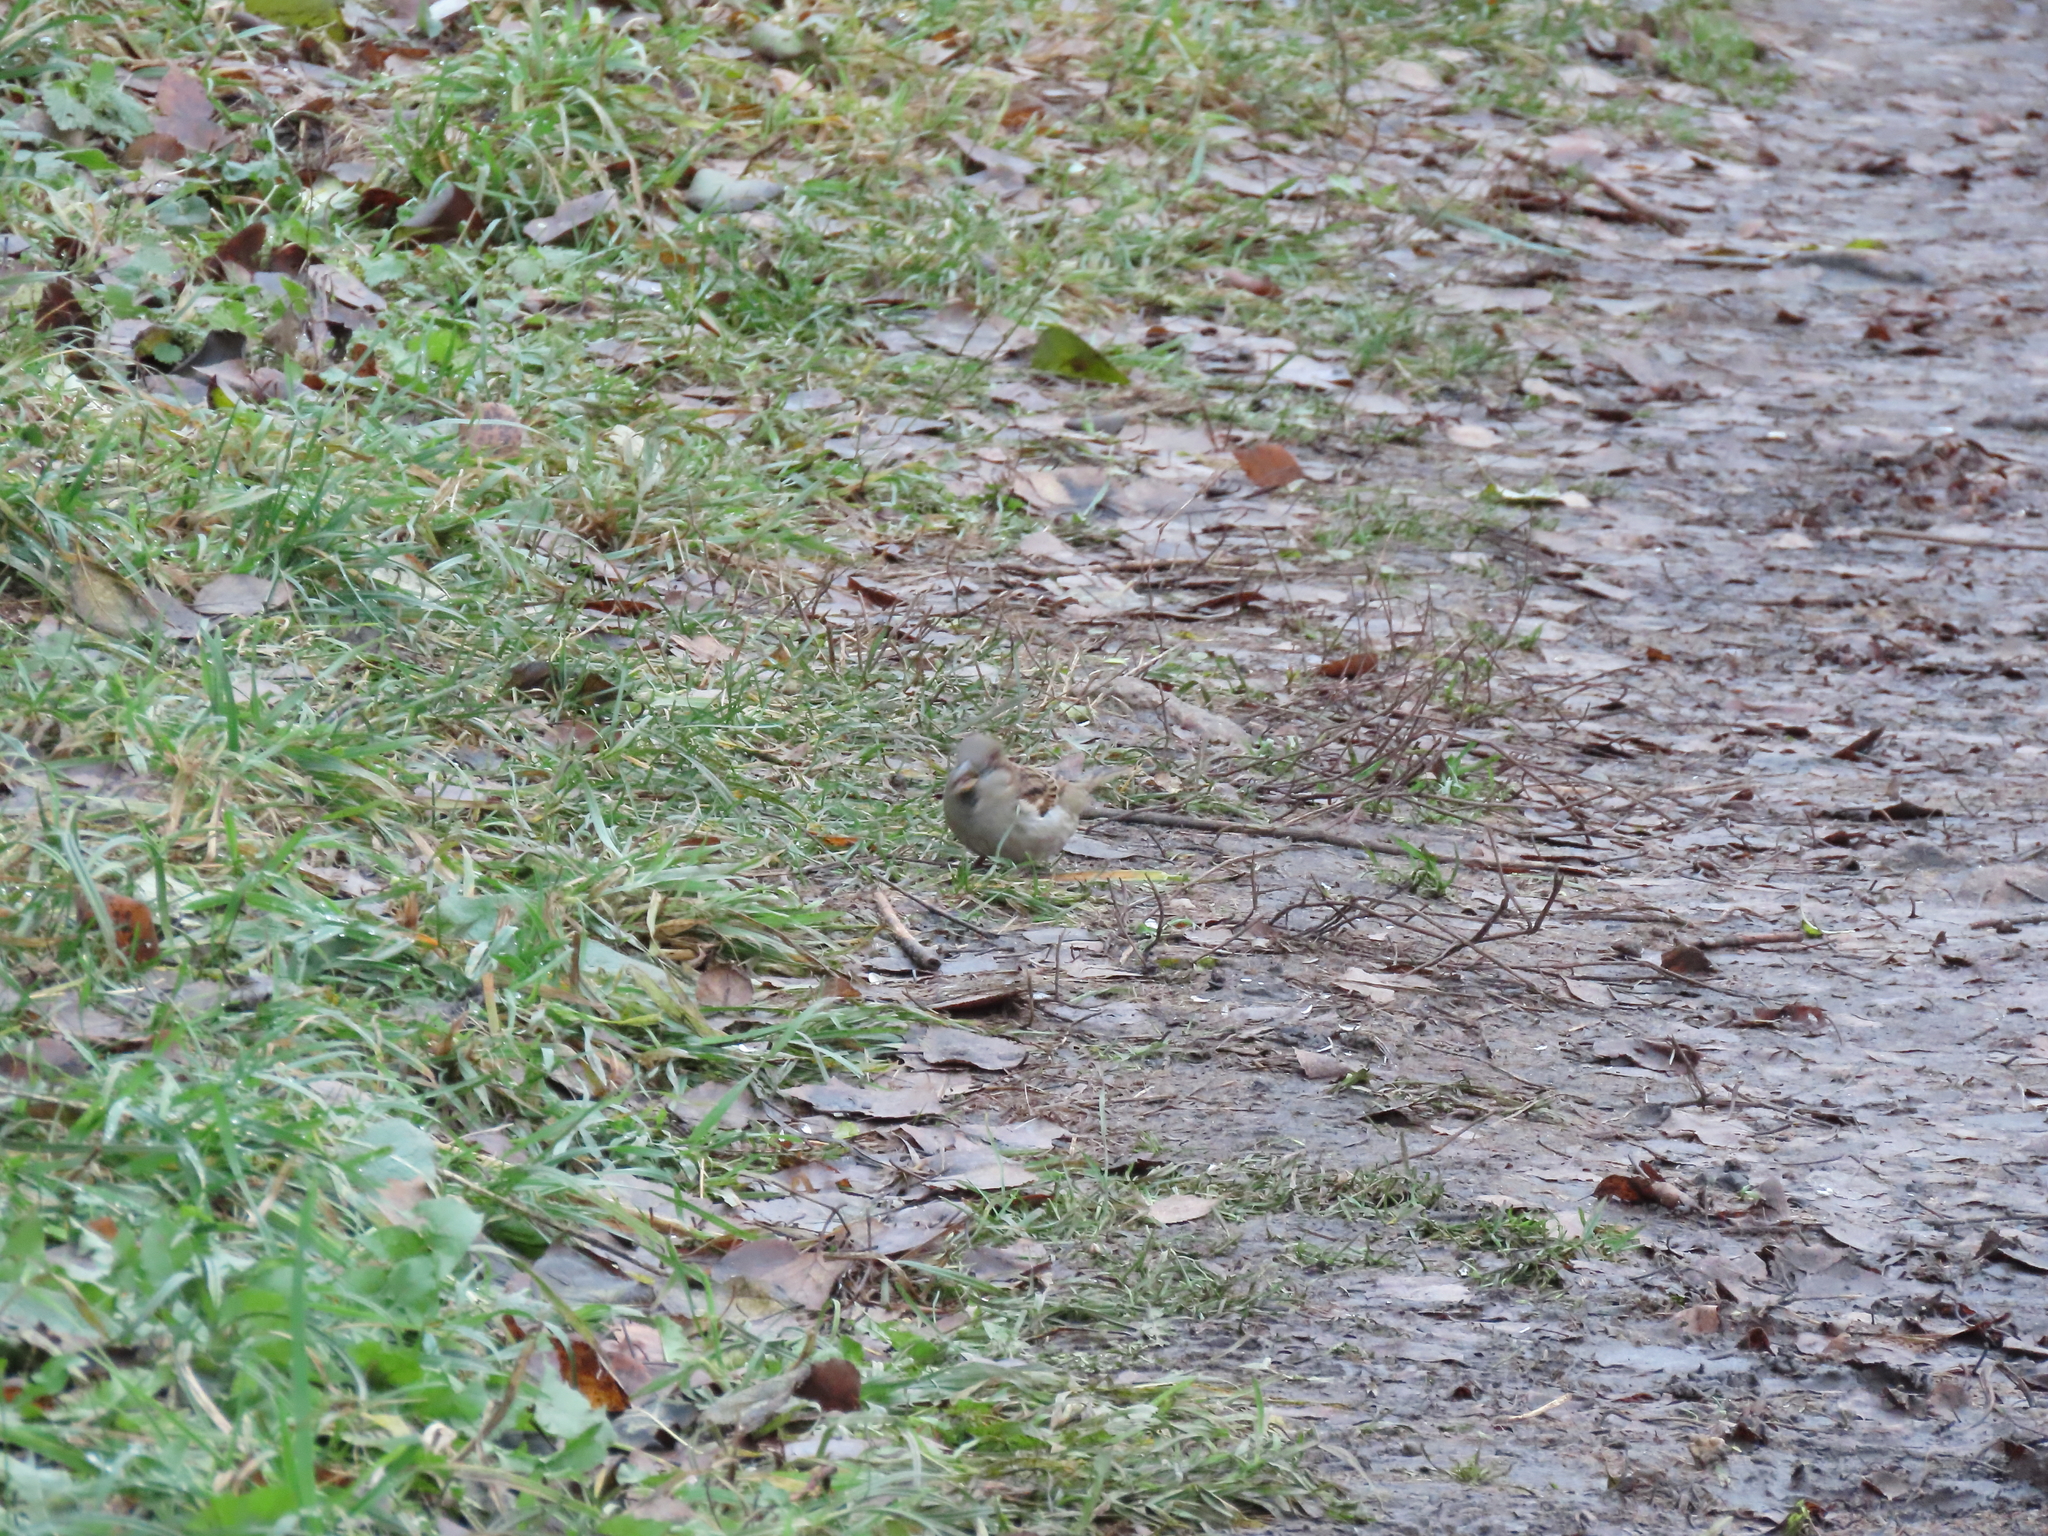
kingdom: Animalia
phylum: Chordata
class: Aves
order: Passeriformes
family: Passeridae
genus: Passer
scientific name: Passer domesticus
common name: House sparrow
